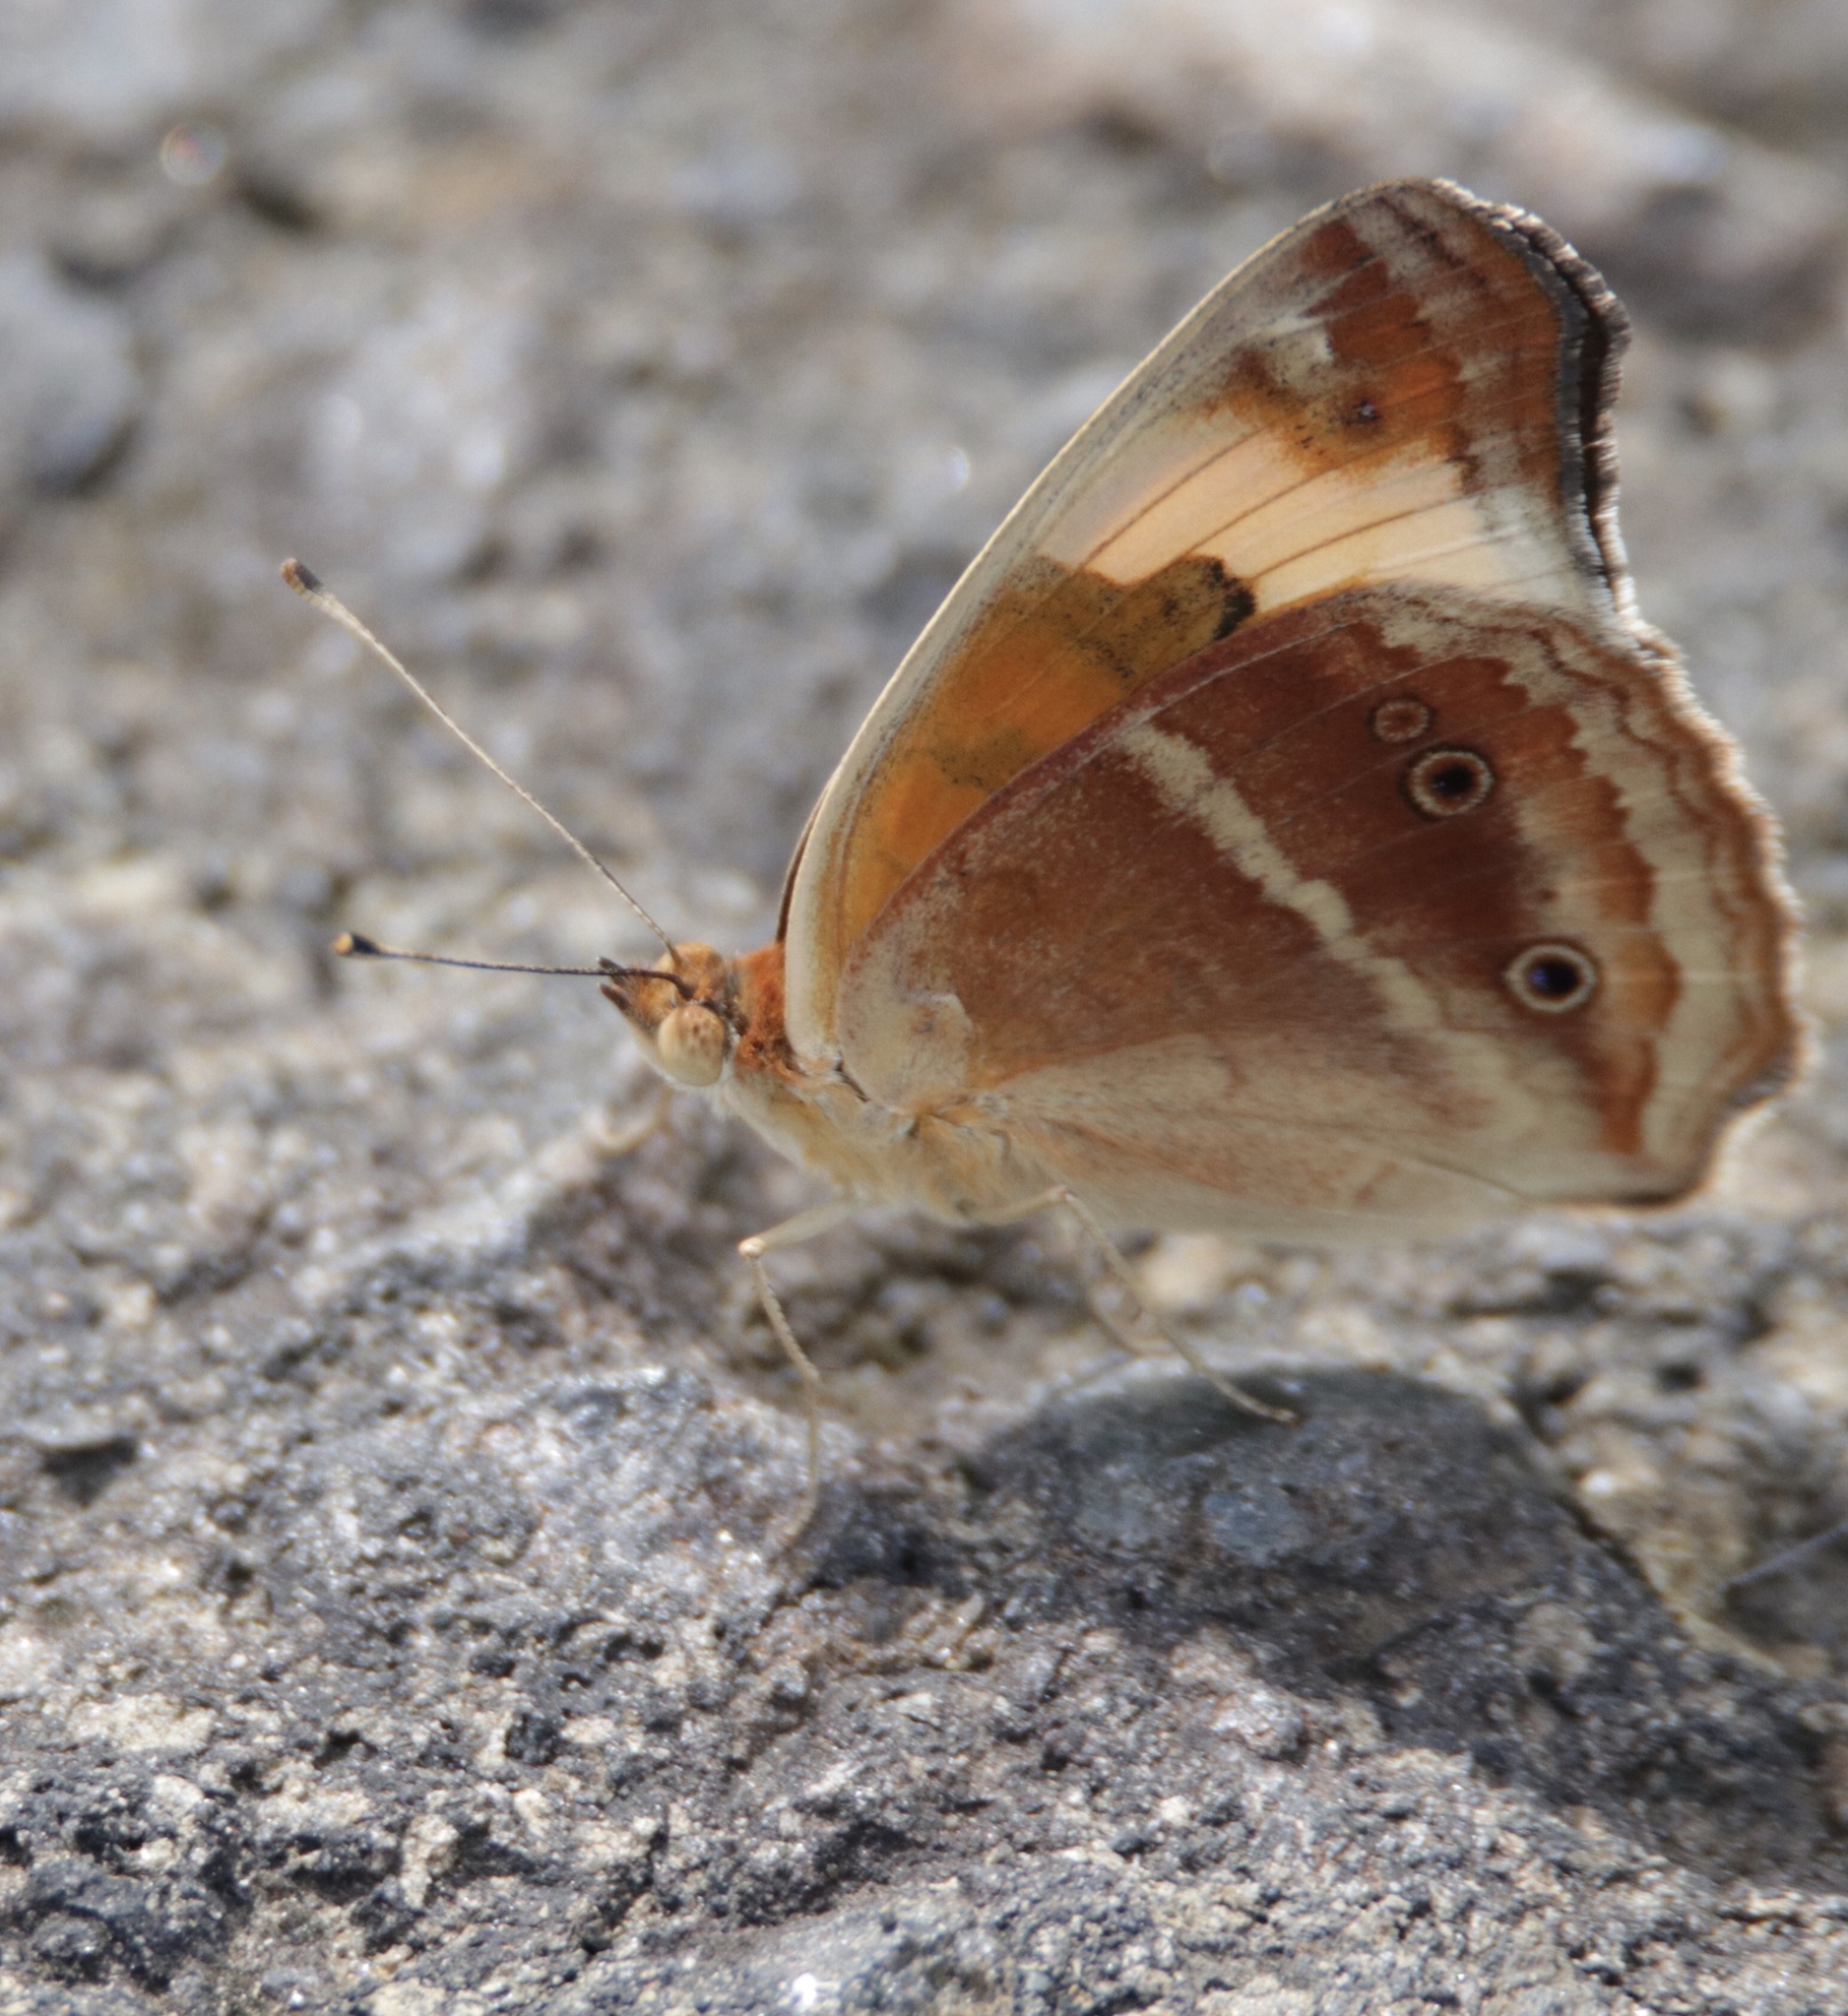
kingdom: Animalia
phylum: Arthropoda
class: Insecta
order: Lepidoptera
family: Nymphalidae
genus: Junonia
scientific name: Junonia lavinia
